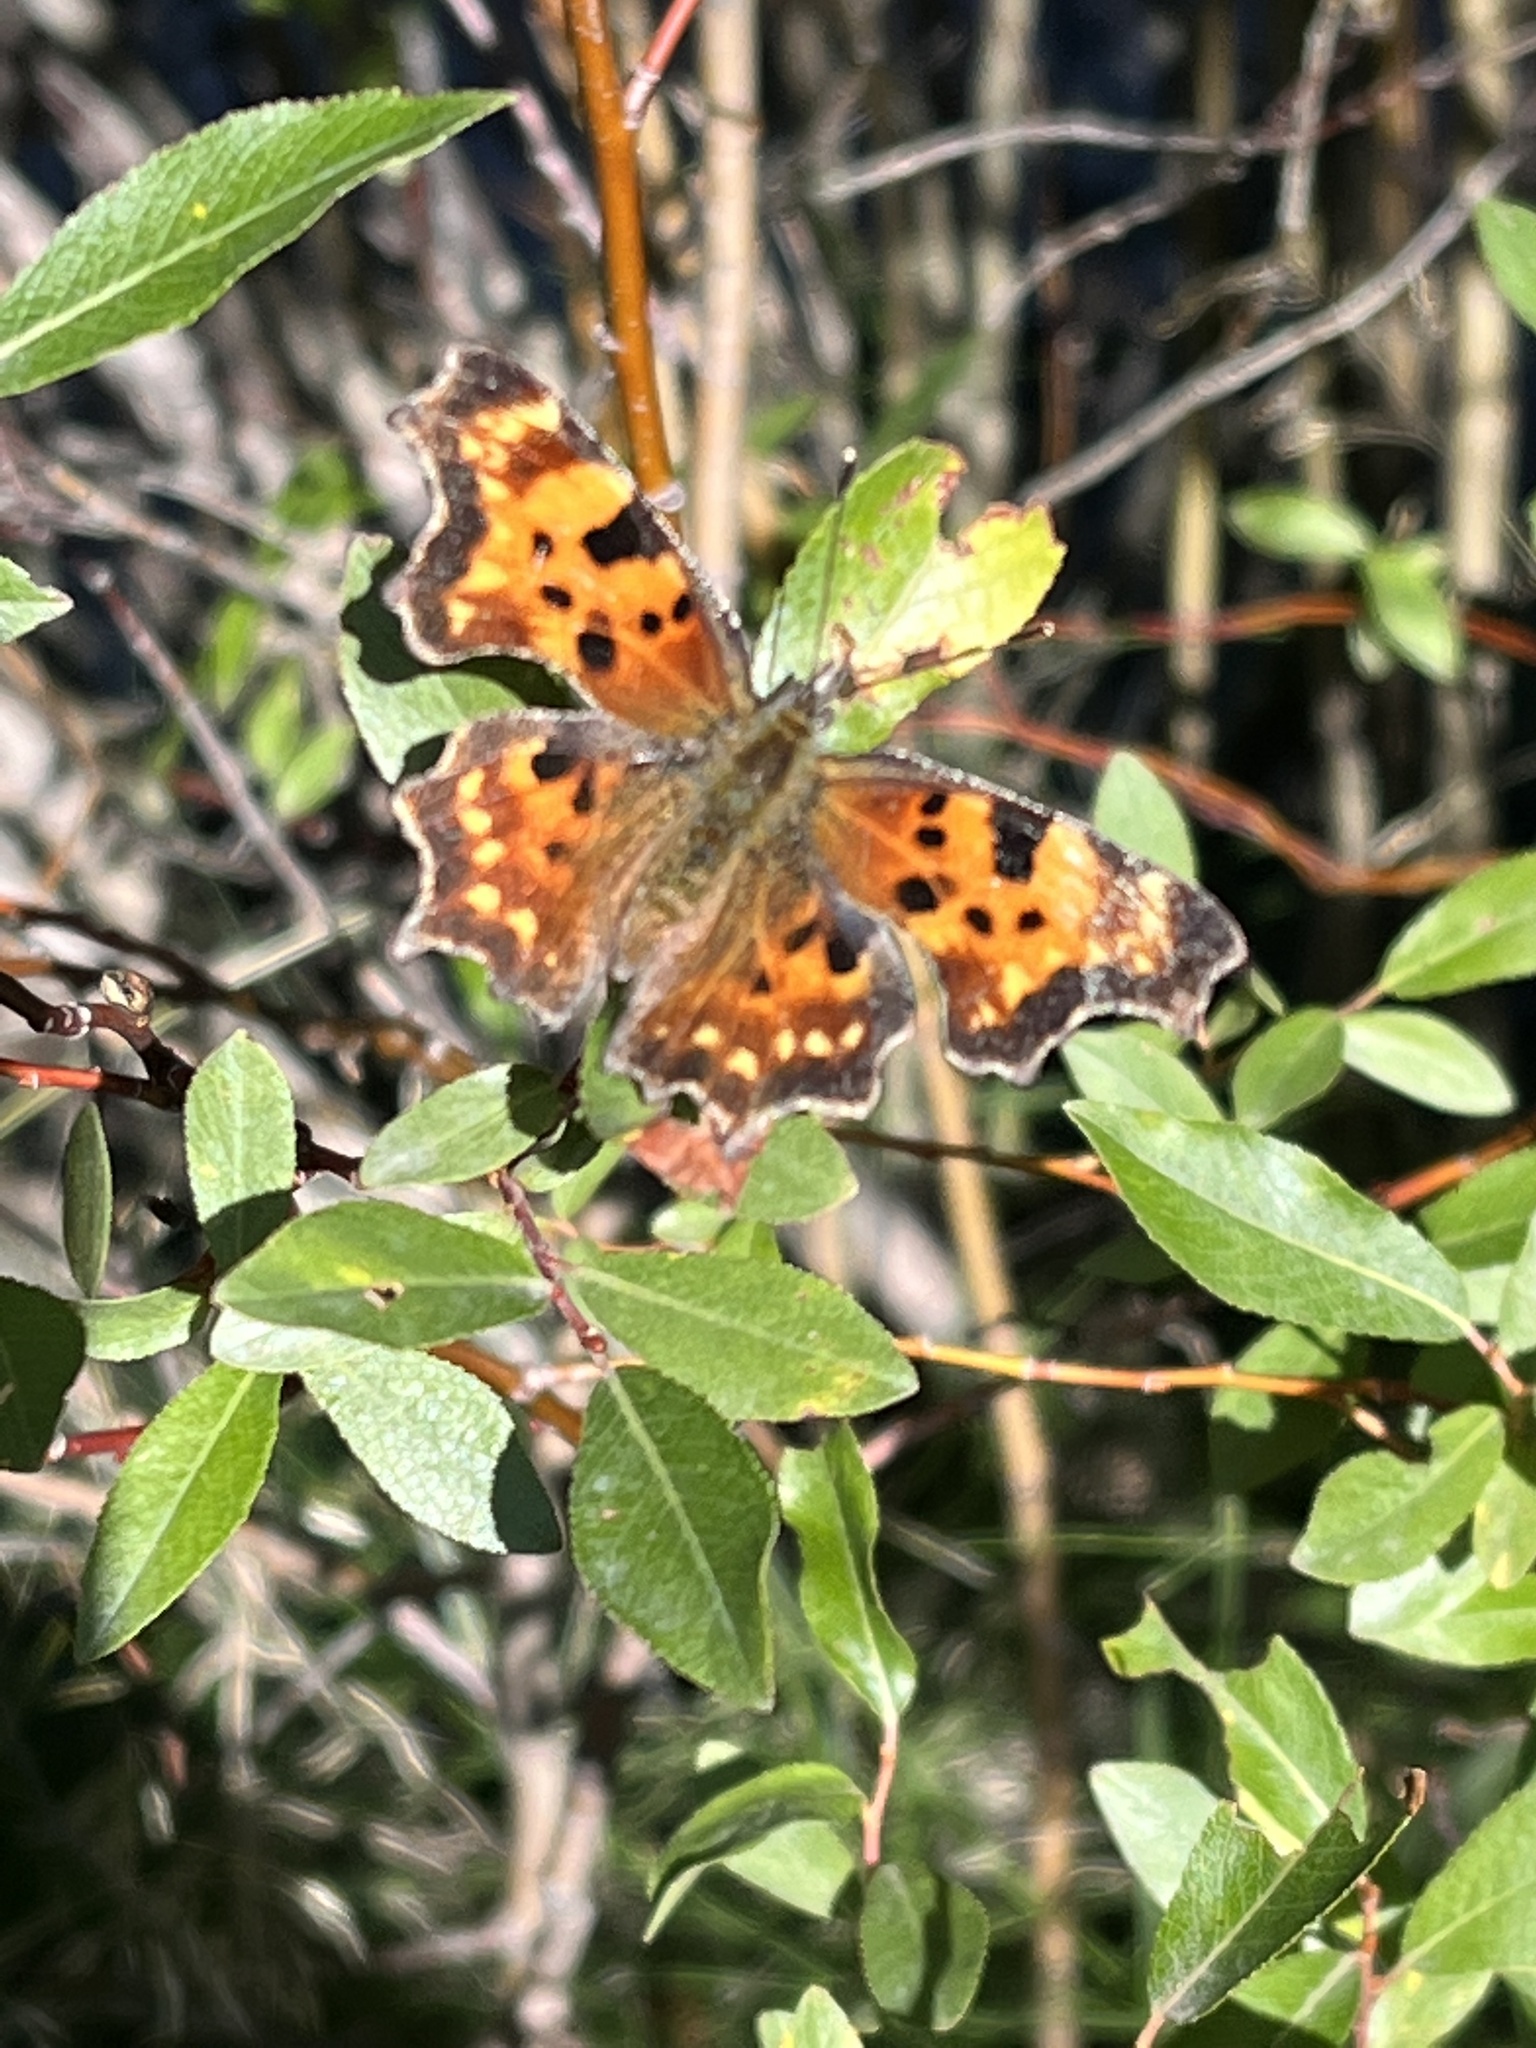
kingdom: Animalia
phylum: Arthropoda
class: Insecta
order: Lepidoptera
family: Nymphalidae
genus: Polygonia
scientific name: Polygonia gracilis
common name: Hoary comma
